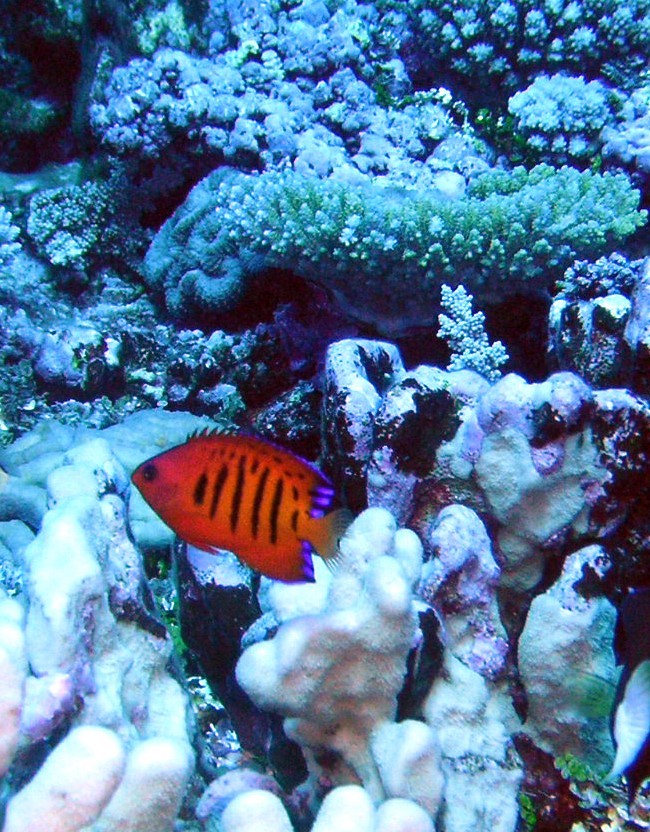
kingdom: Animalia
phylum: Chordata
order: Perciformes
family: Pomacanthidae
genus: Centropyge
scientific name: Centropyge loriculus
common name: Flame angelfish
